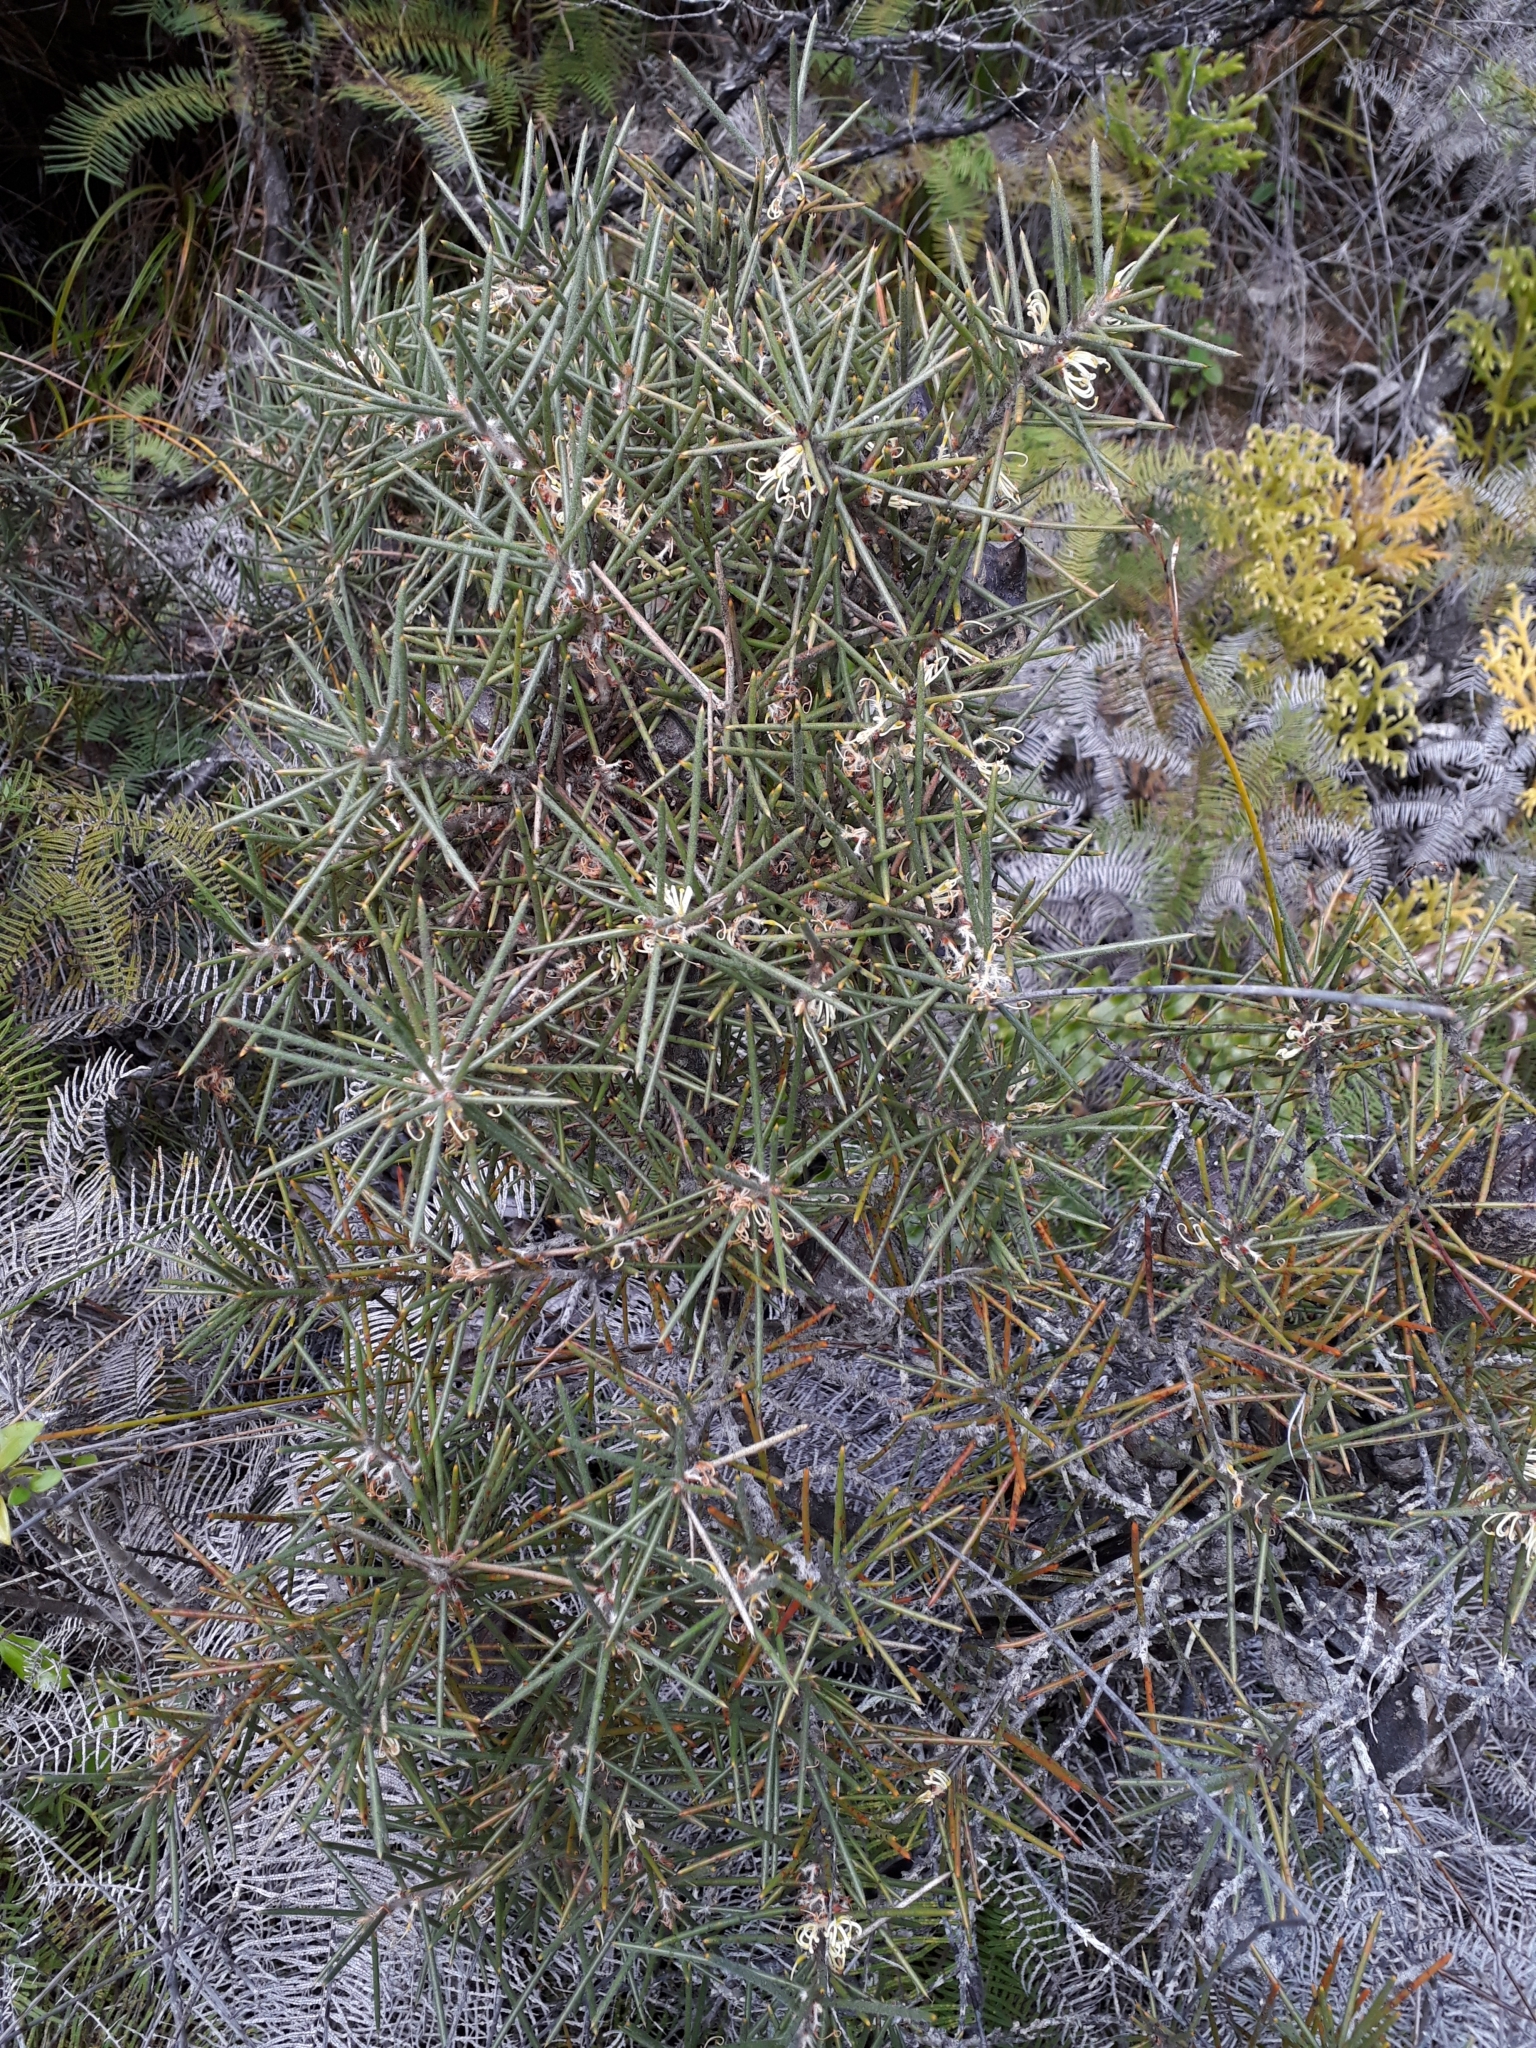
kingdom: Plantae
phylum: Tracheophyta
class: Magnoliopsida
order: Proteales
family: Proteaceae
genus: Hakea
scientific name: Hakea gibbosa
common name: Rock hakea
